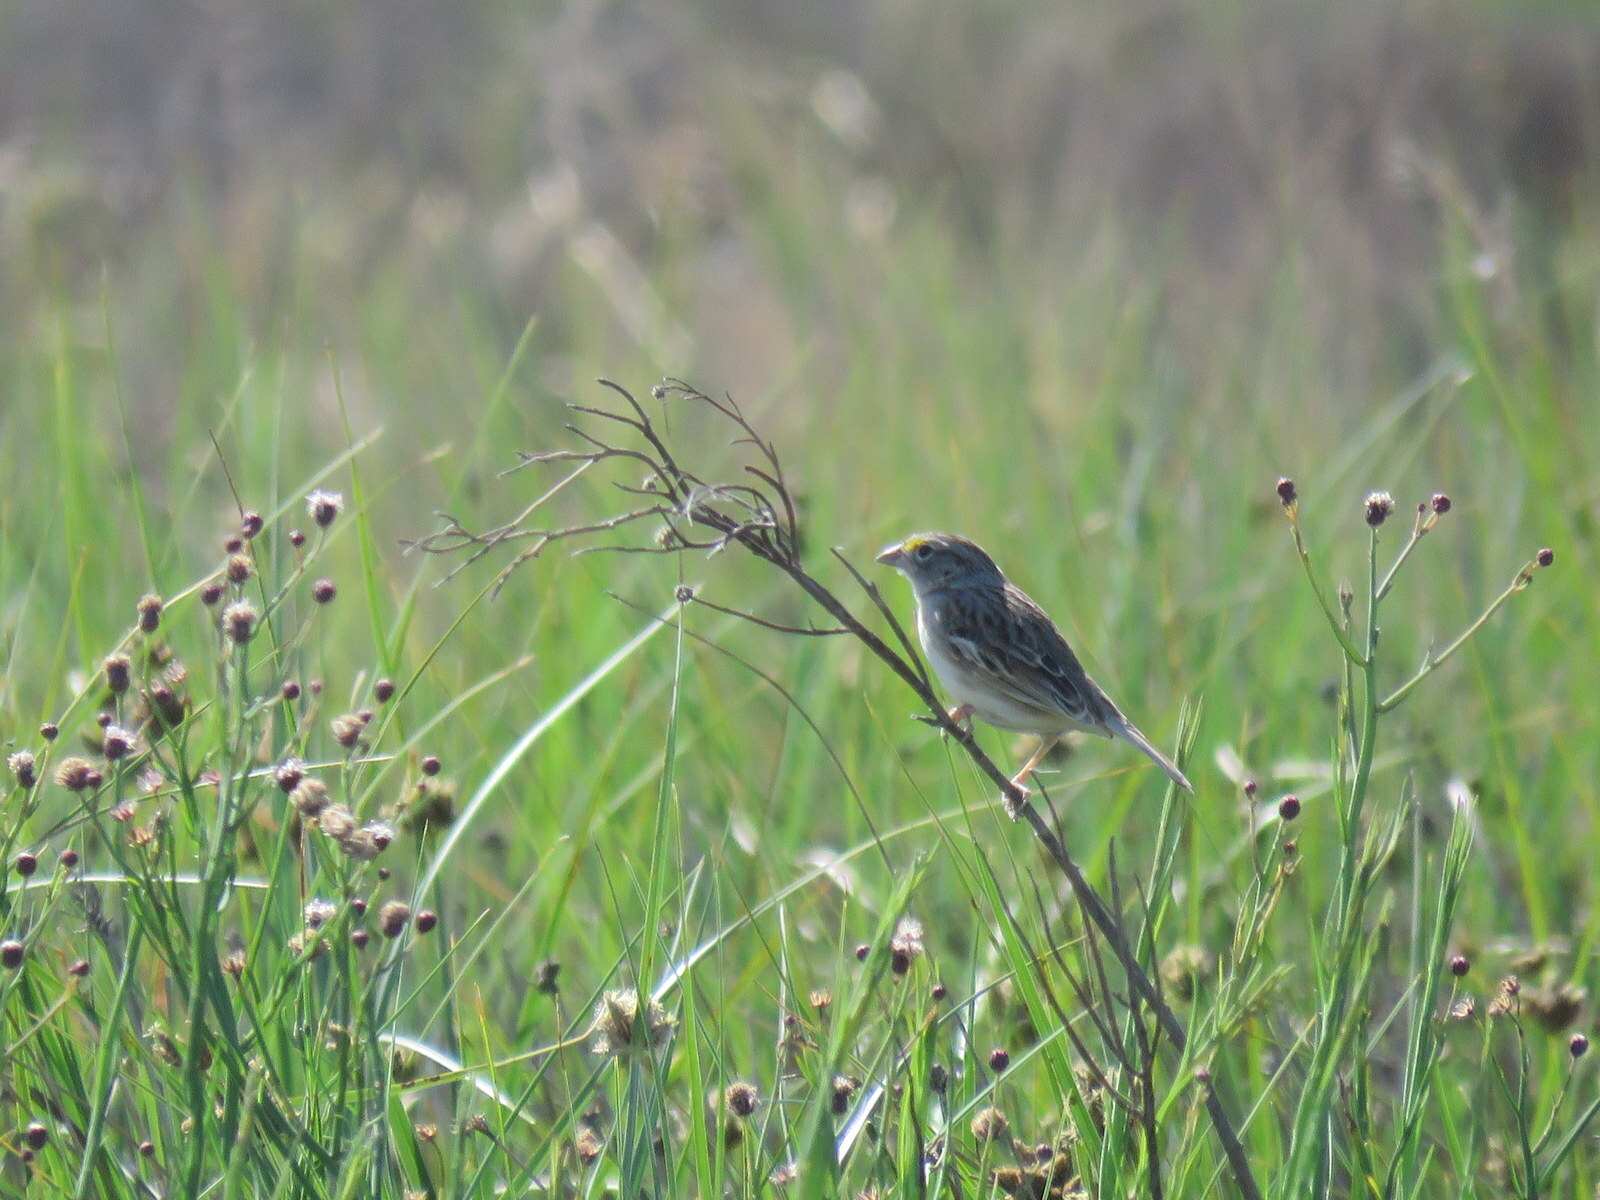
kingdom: Animalia
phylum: Chordata
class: Aves
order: Passeriformes
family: Passerellidae
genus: Ammodramus
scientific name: Ammodramus humeralis
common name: Grassland sparrow
